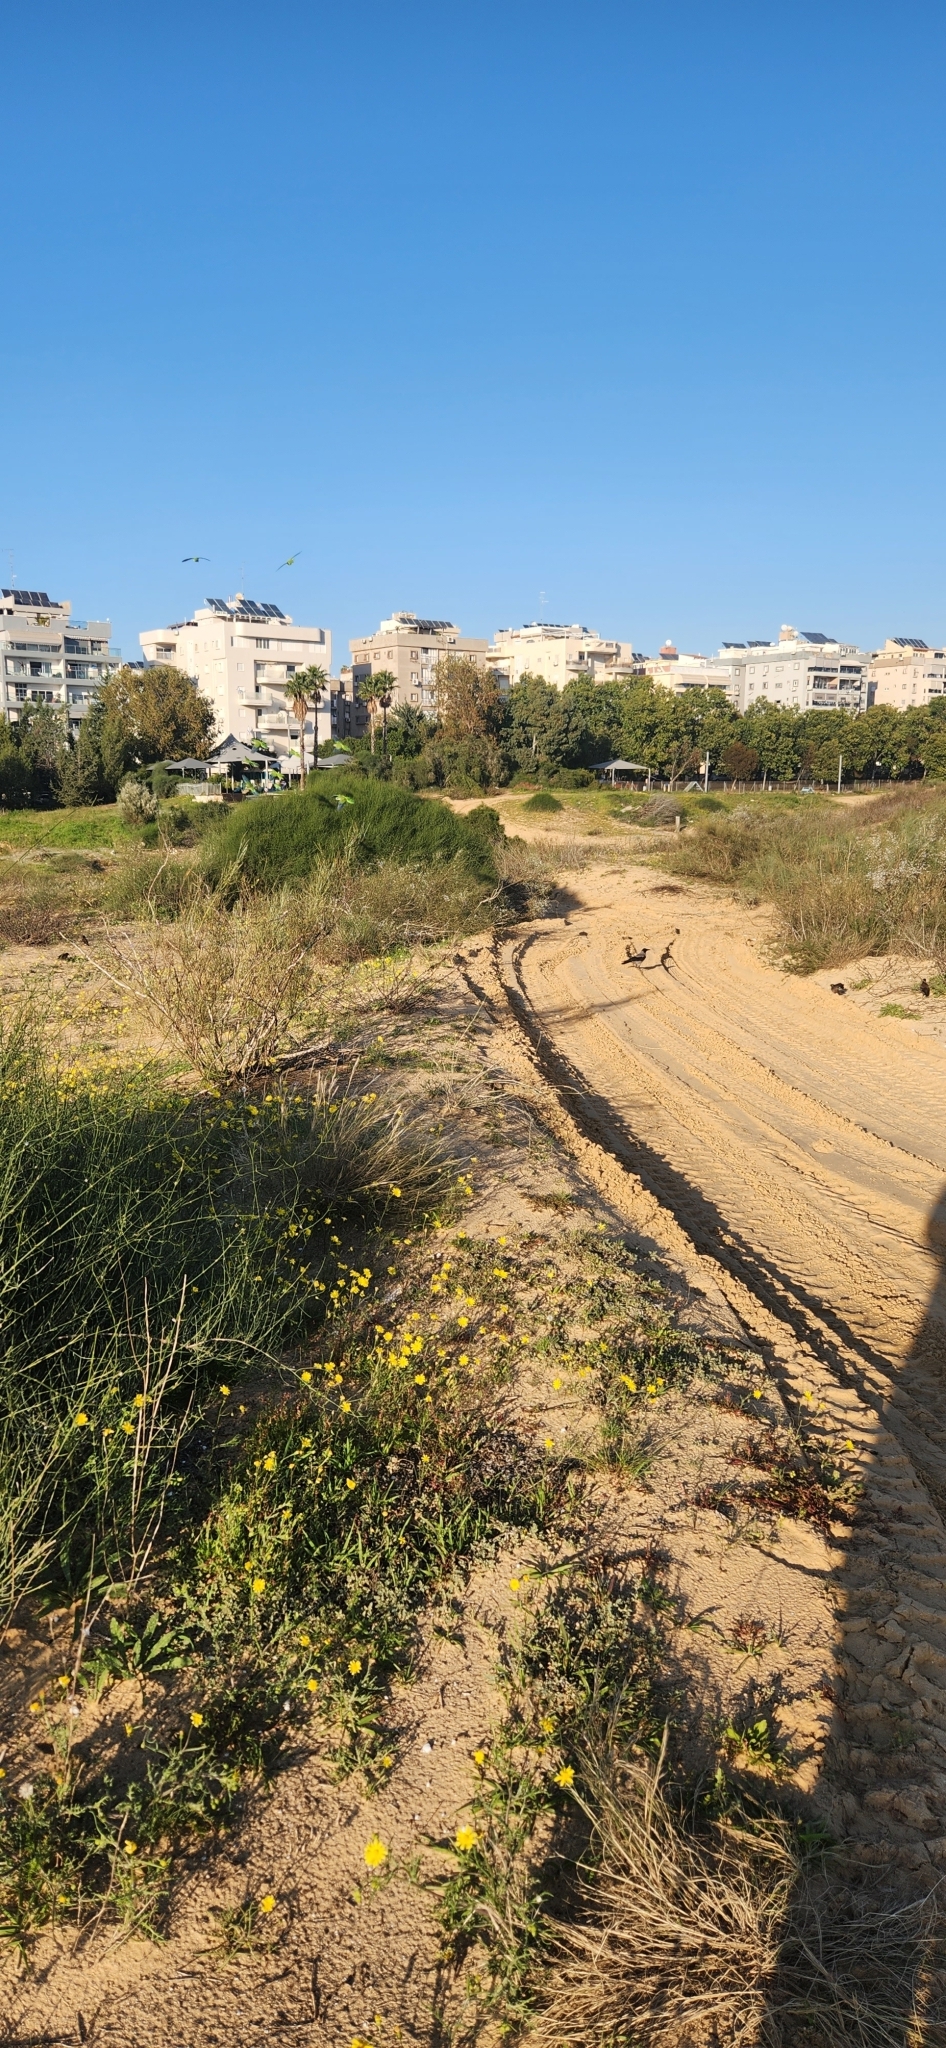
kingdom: Animalia
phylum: Chordata
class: Aves
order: Passeriformes
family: Corvidae
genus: Corvus
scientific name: Corvus cornix
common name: Hooded crow
